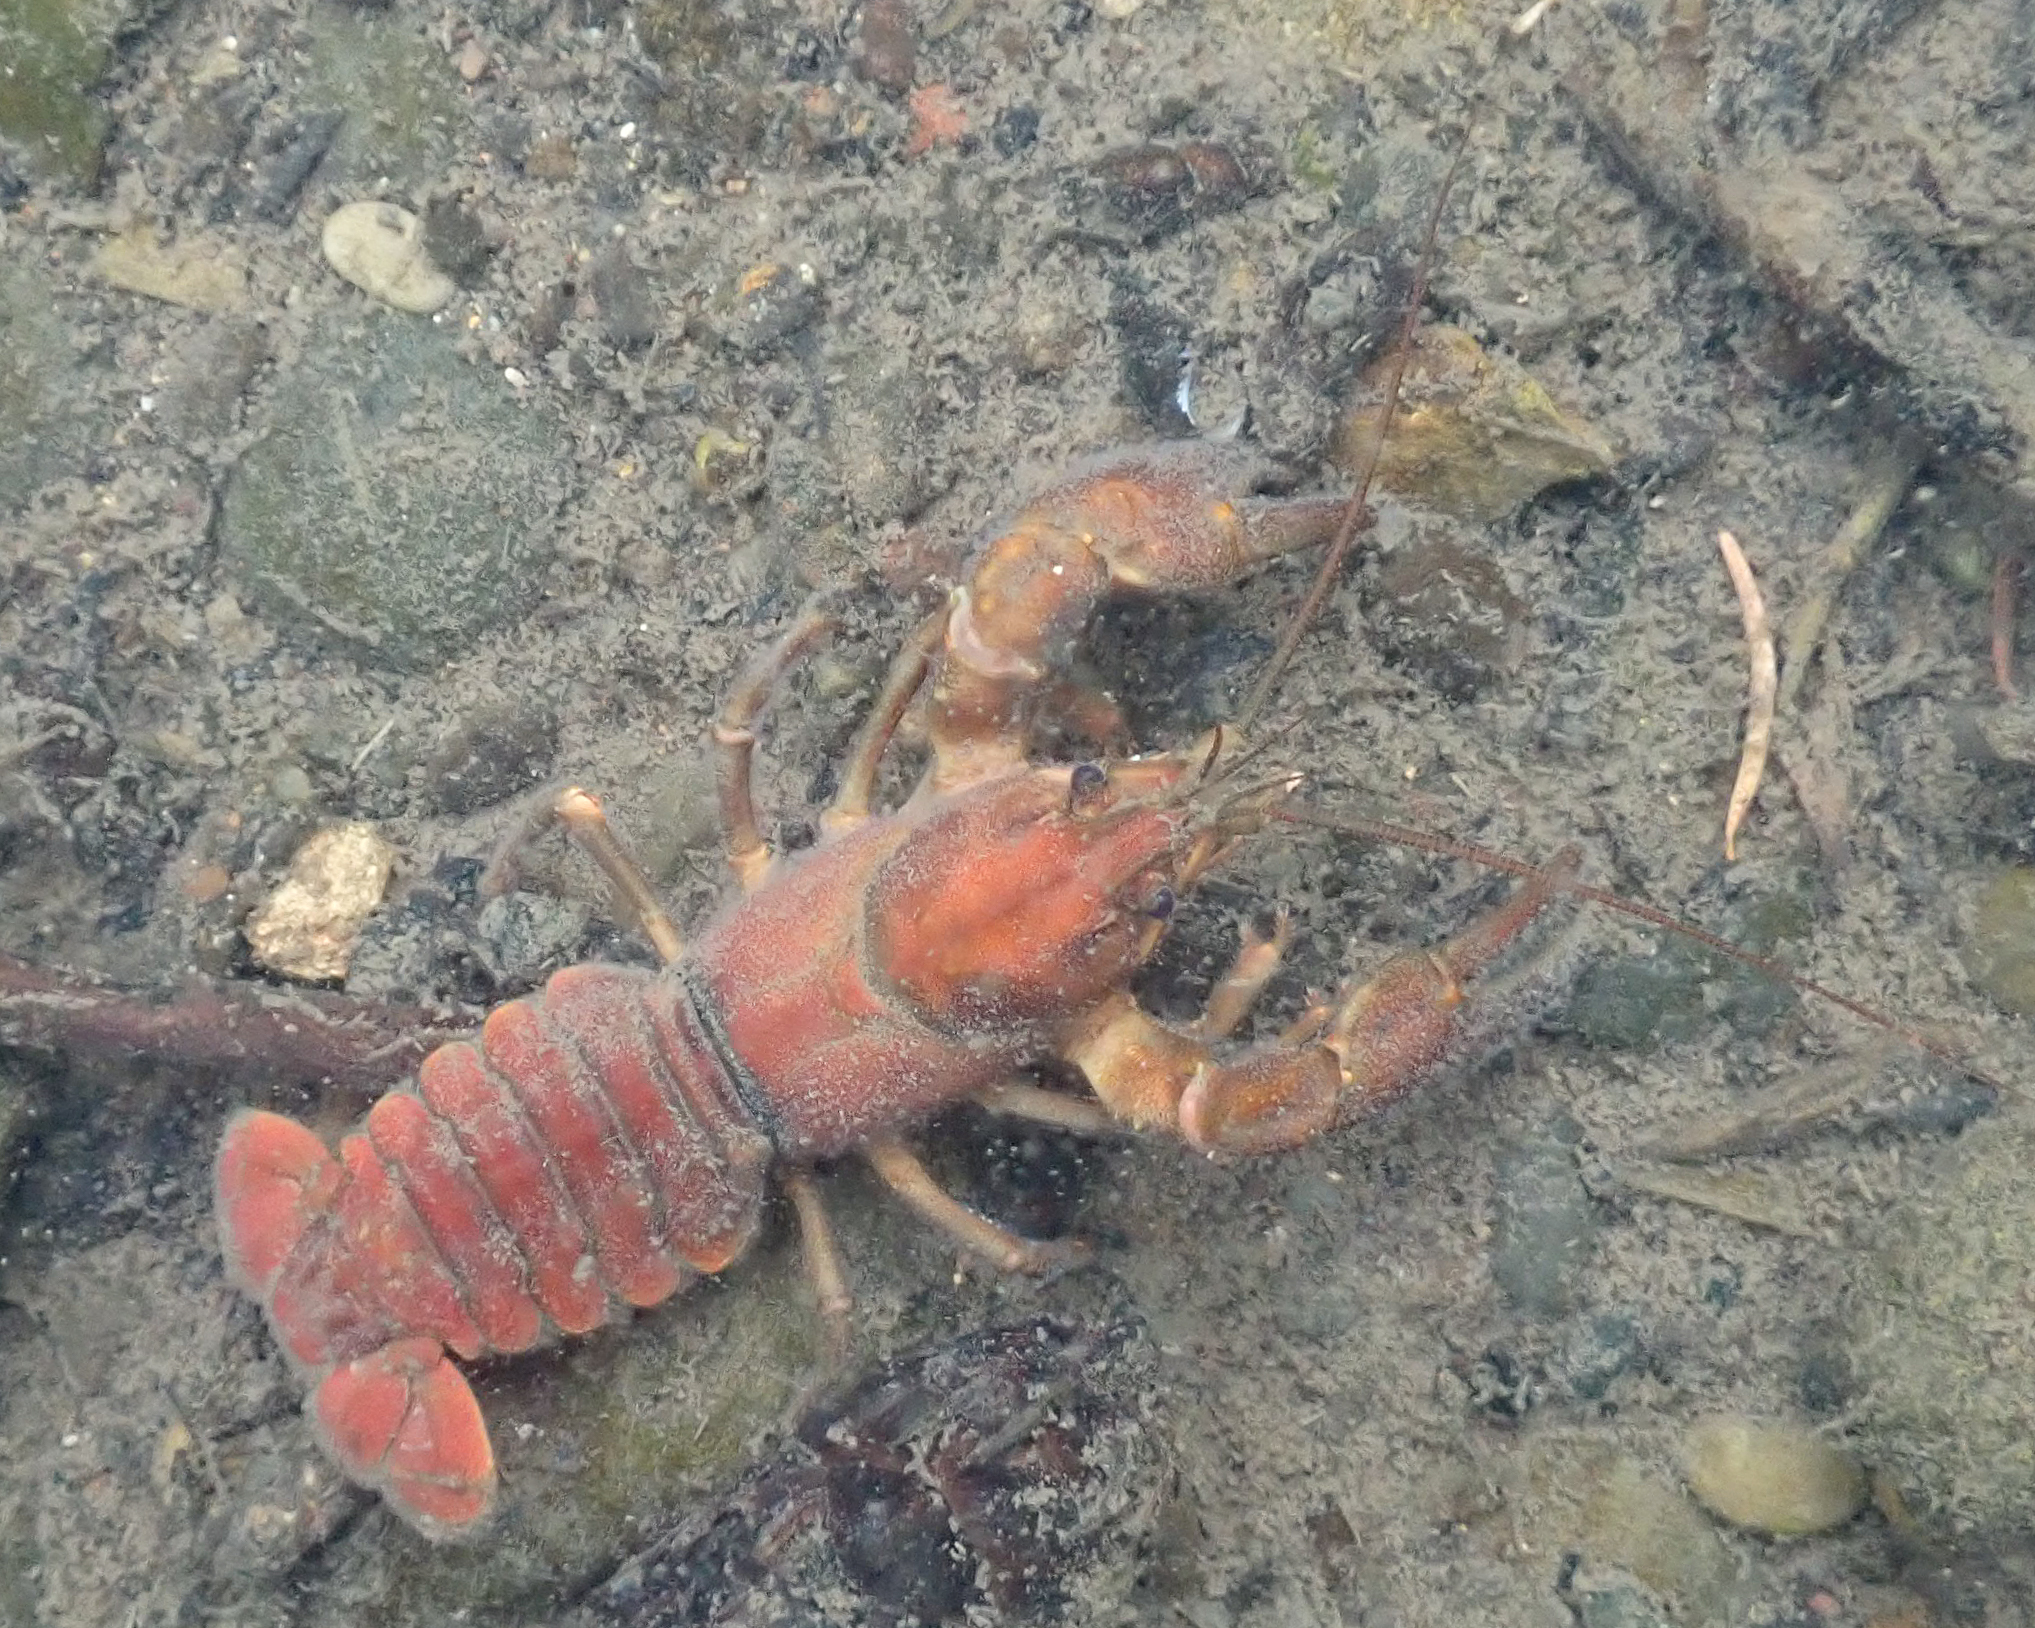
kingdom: Animalia
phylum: Arthropoda
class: Malacostraca
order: Decapoda
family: Astacidae
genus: Pacifastacus
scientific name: Pacifastacus leniusculus
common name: Signal crayfish
